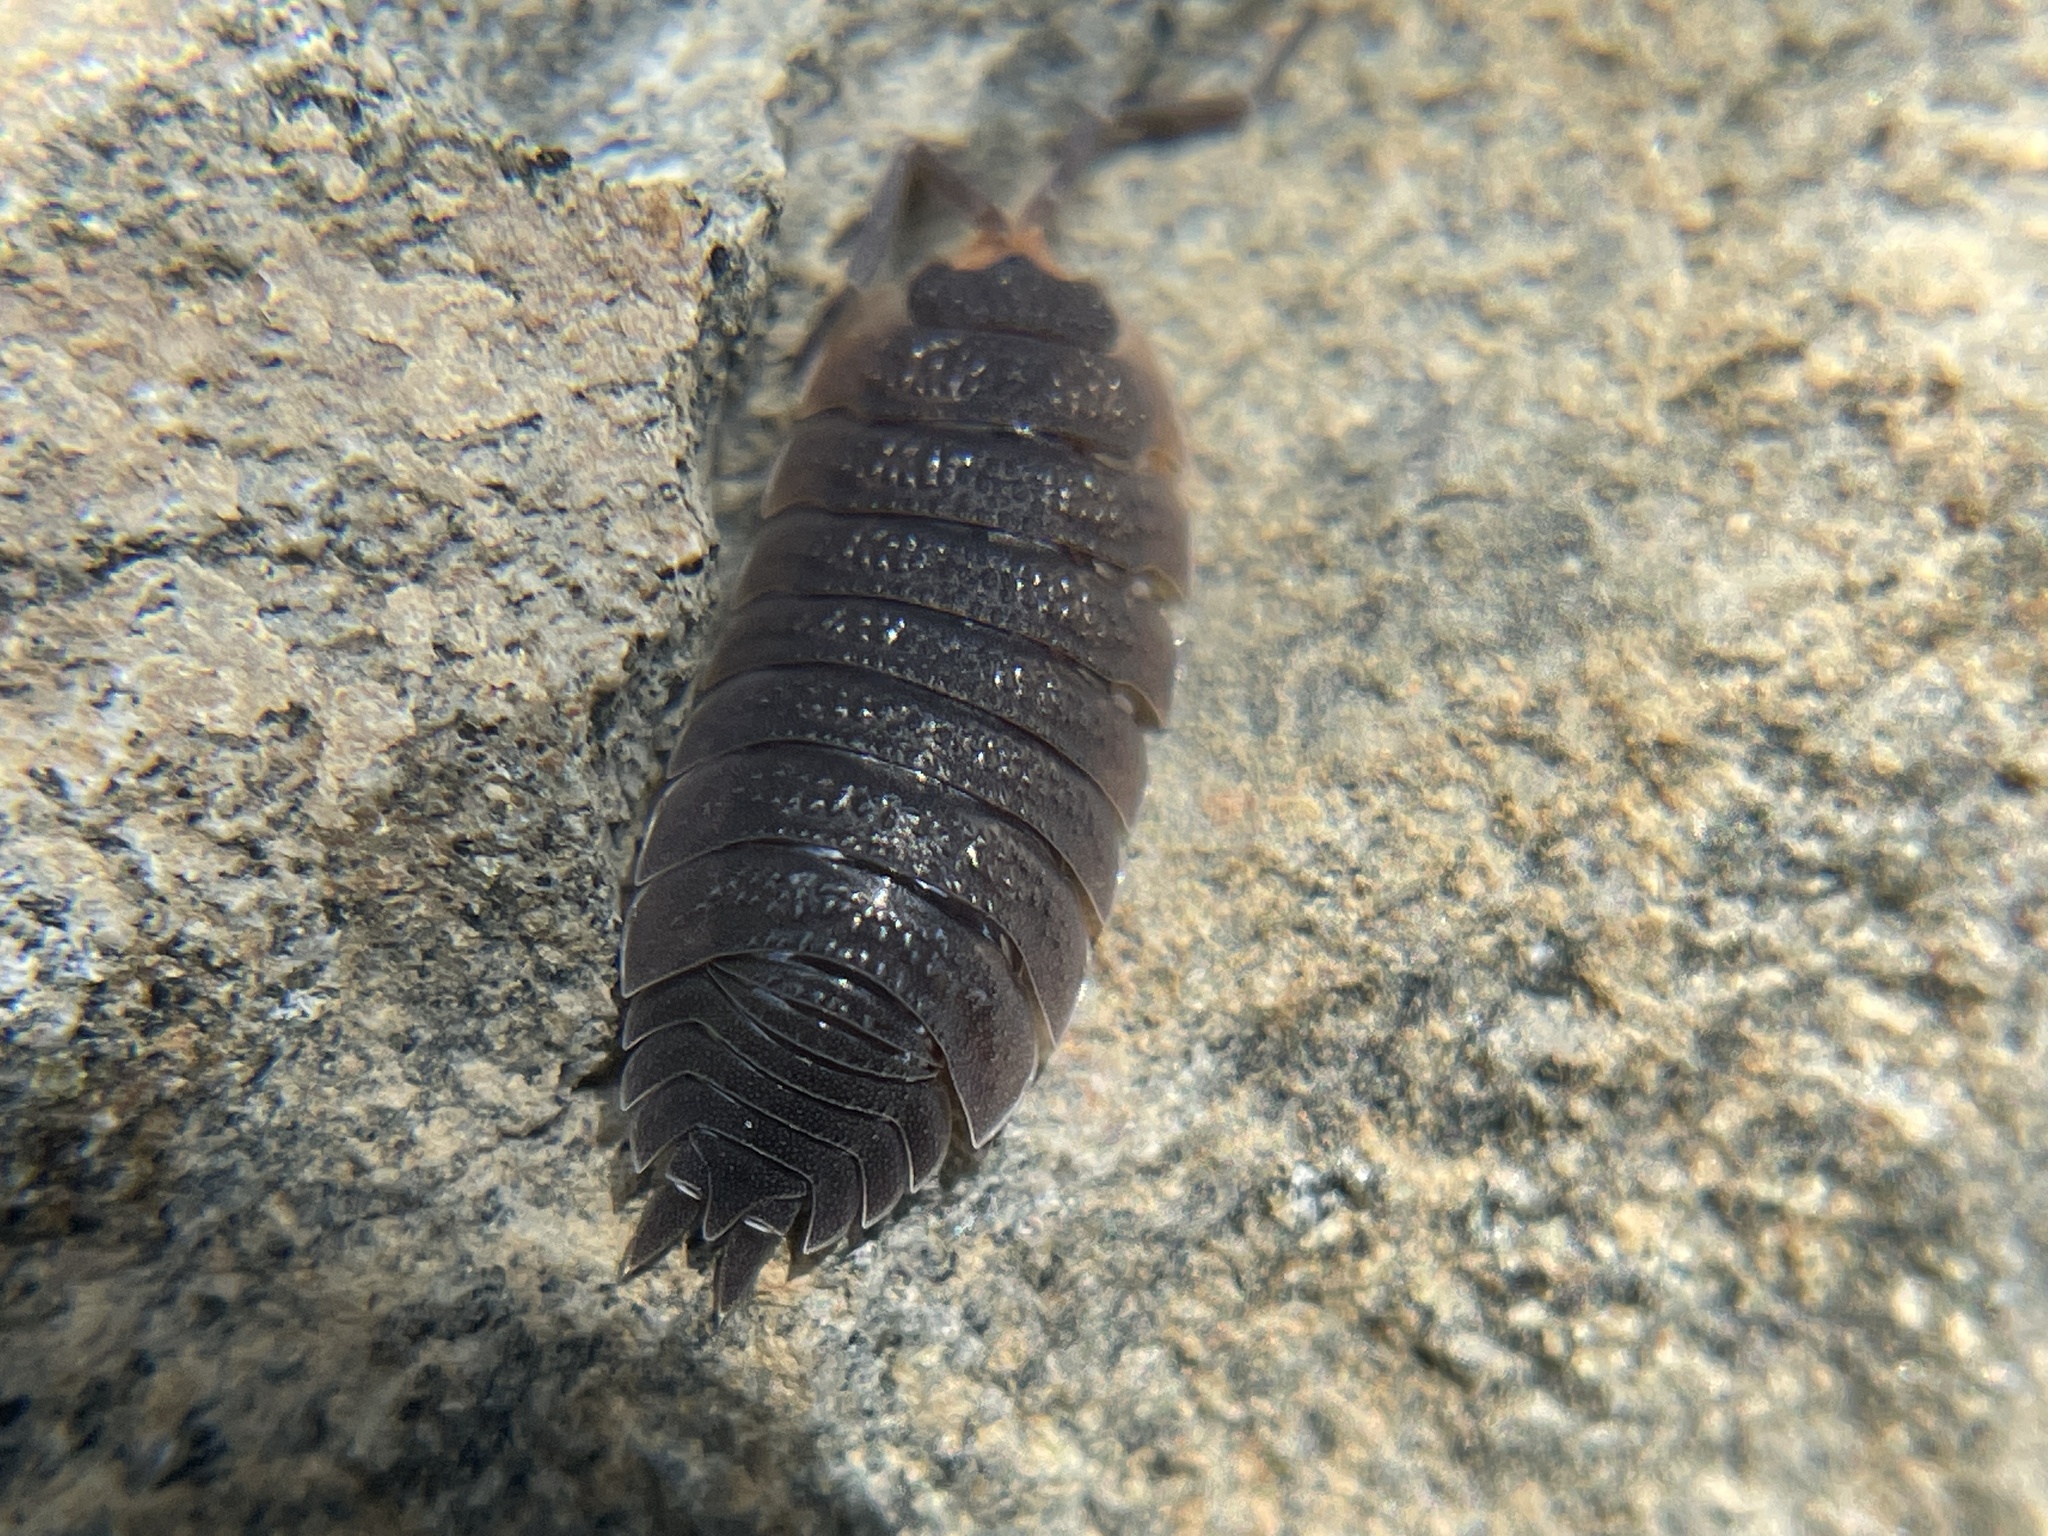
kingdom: Animalia
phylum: Arthropoda
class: Malacostraca
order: Isopoda
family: Porcellionidae
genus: Porcellio
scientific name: Porcellio scaber
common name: Common rough woodlouse
